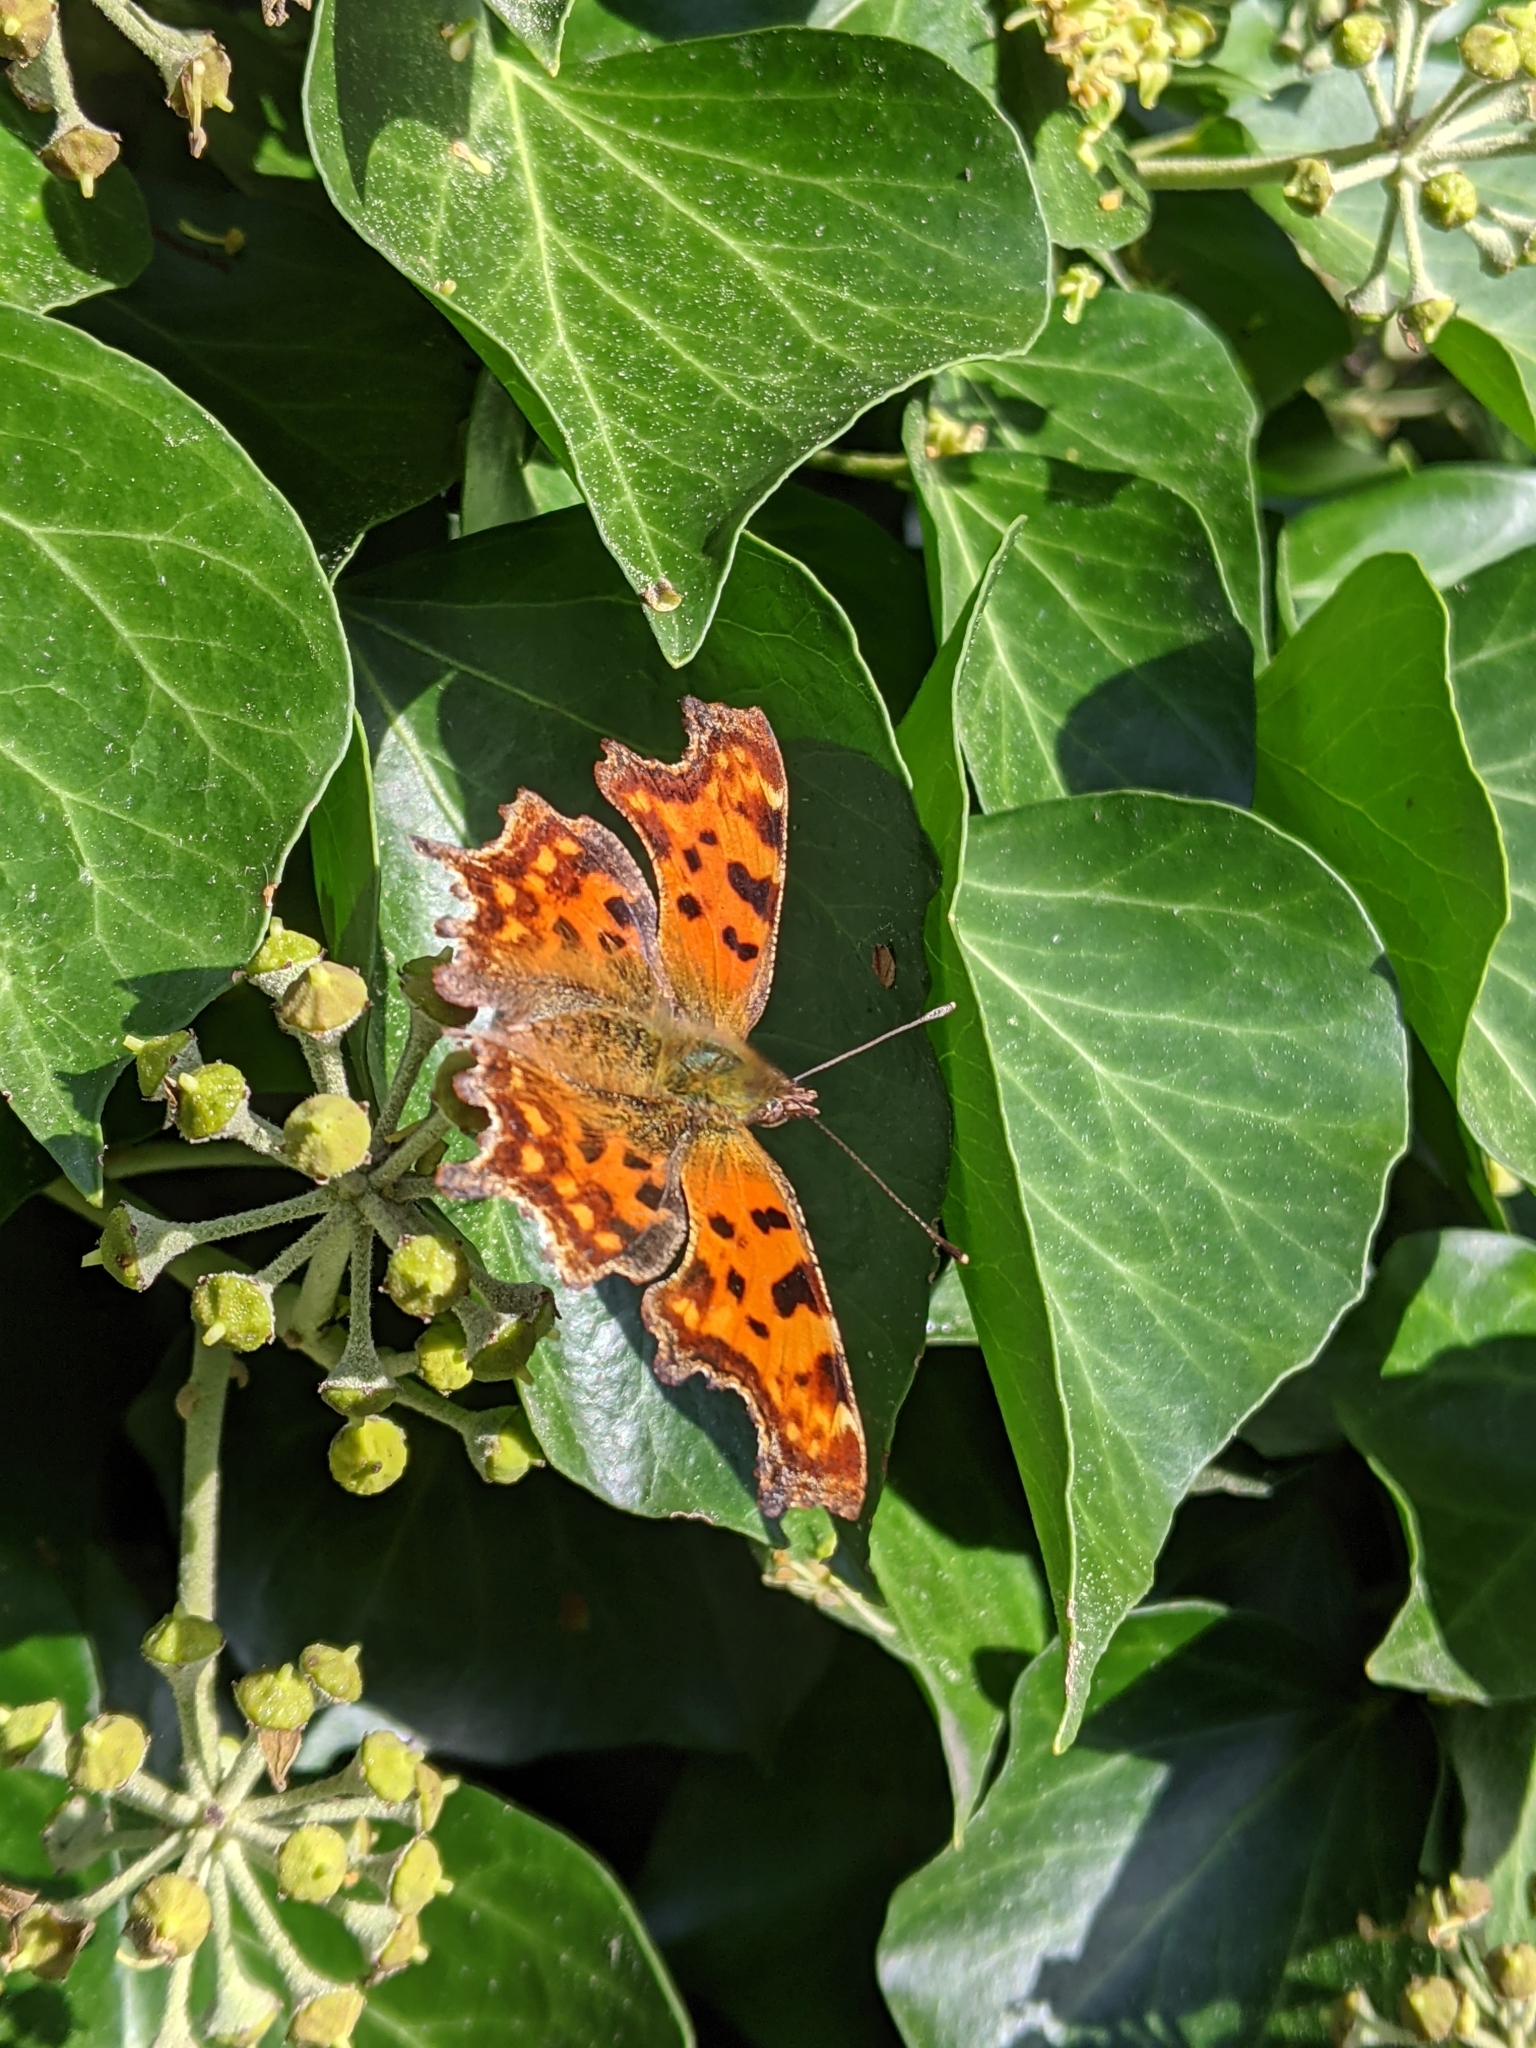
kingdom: Animalia
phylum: Arthropoda
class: Insecta
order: Lepidoptera
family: Nymphalidae
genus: Polygonia
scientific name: Polygonia c-album
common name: Comma
